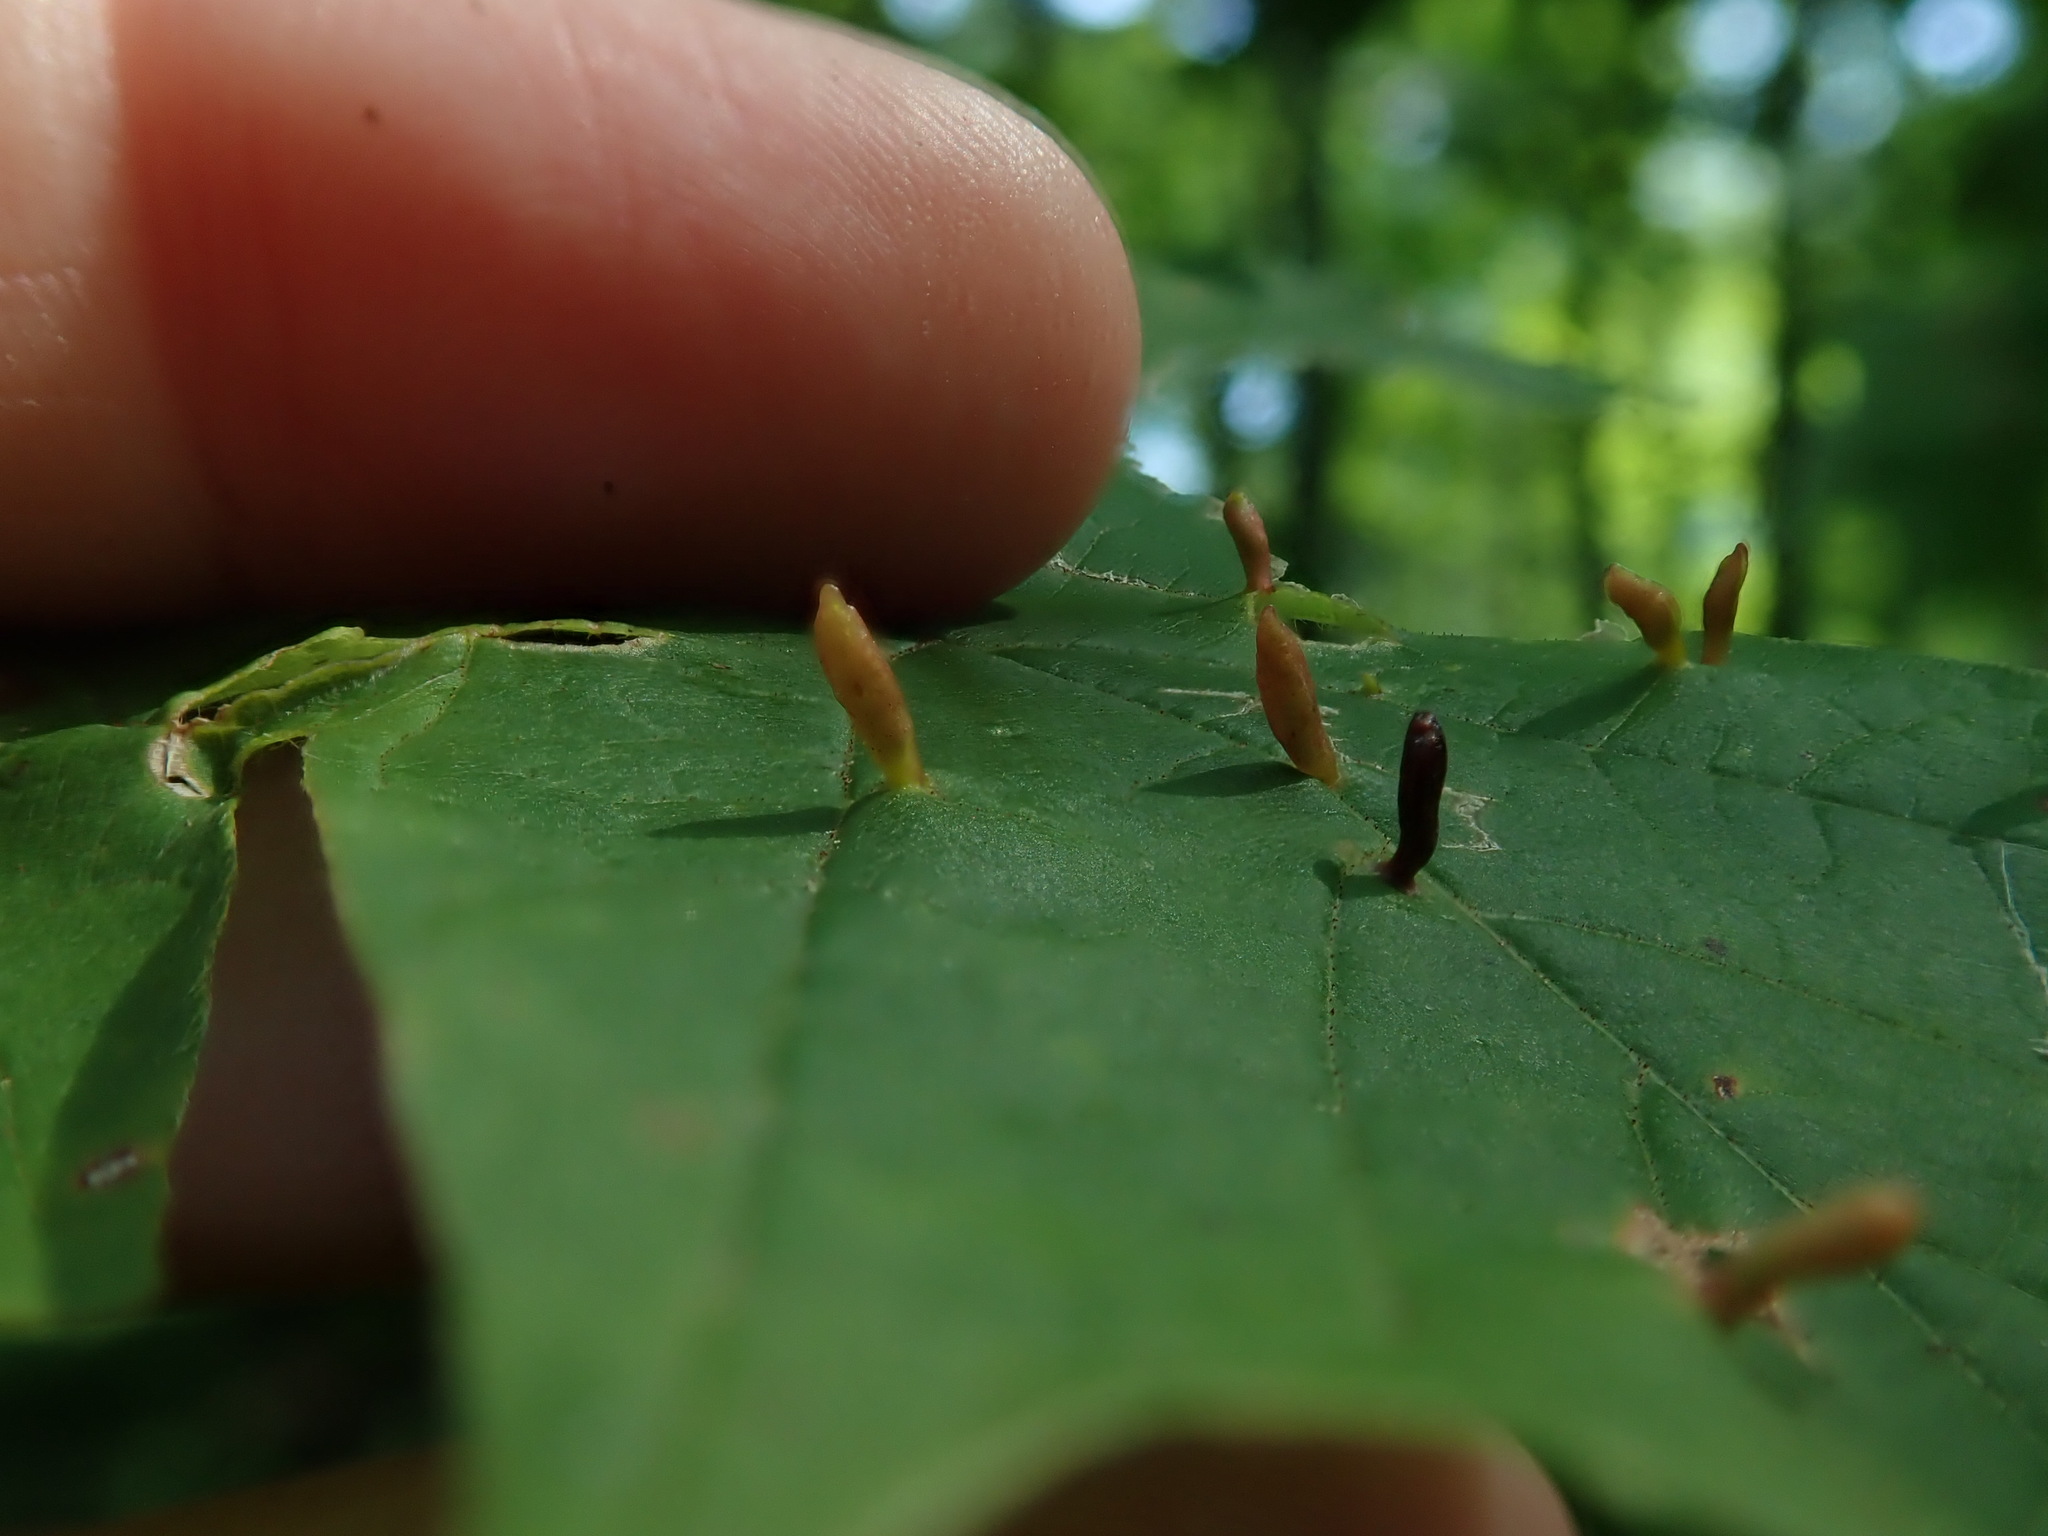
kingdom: Animalia
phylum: Arthropoda
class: Arachnida
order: Trombidiformes
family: Eriophyidae
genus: Vasates
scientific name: Vasates aceriscrumena
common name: Maple spindle gall mite
